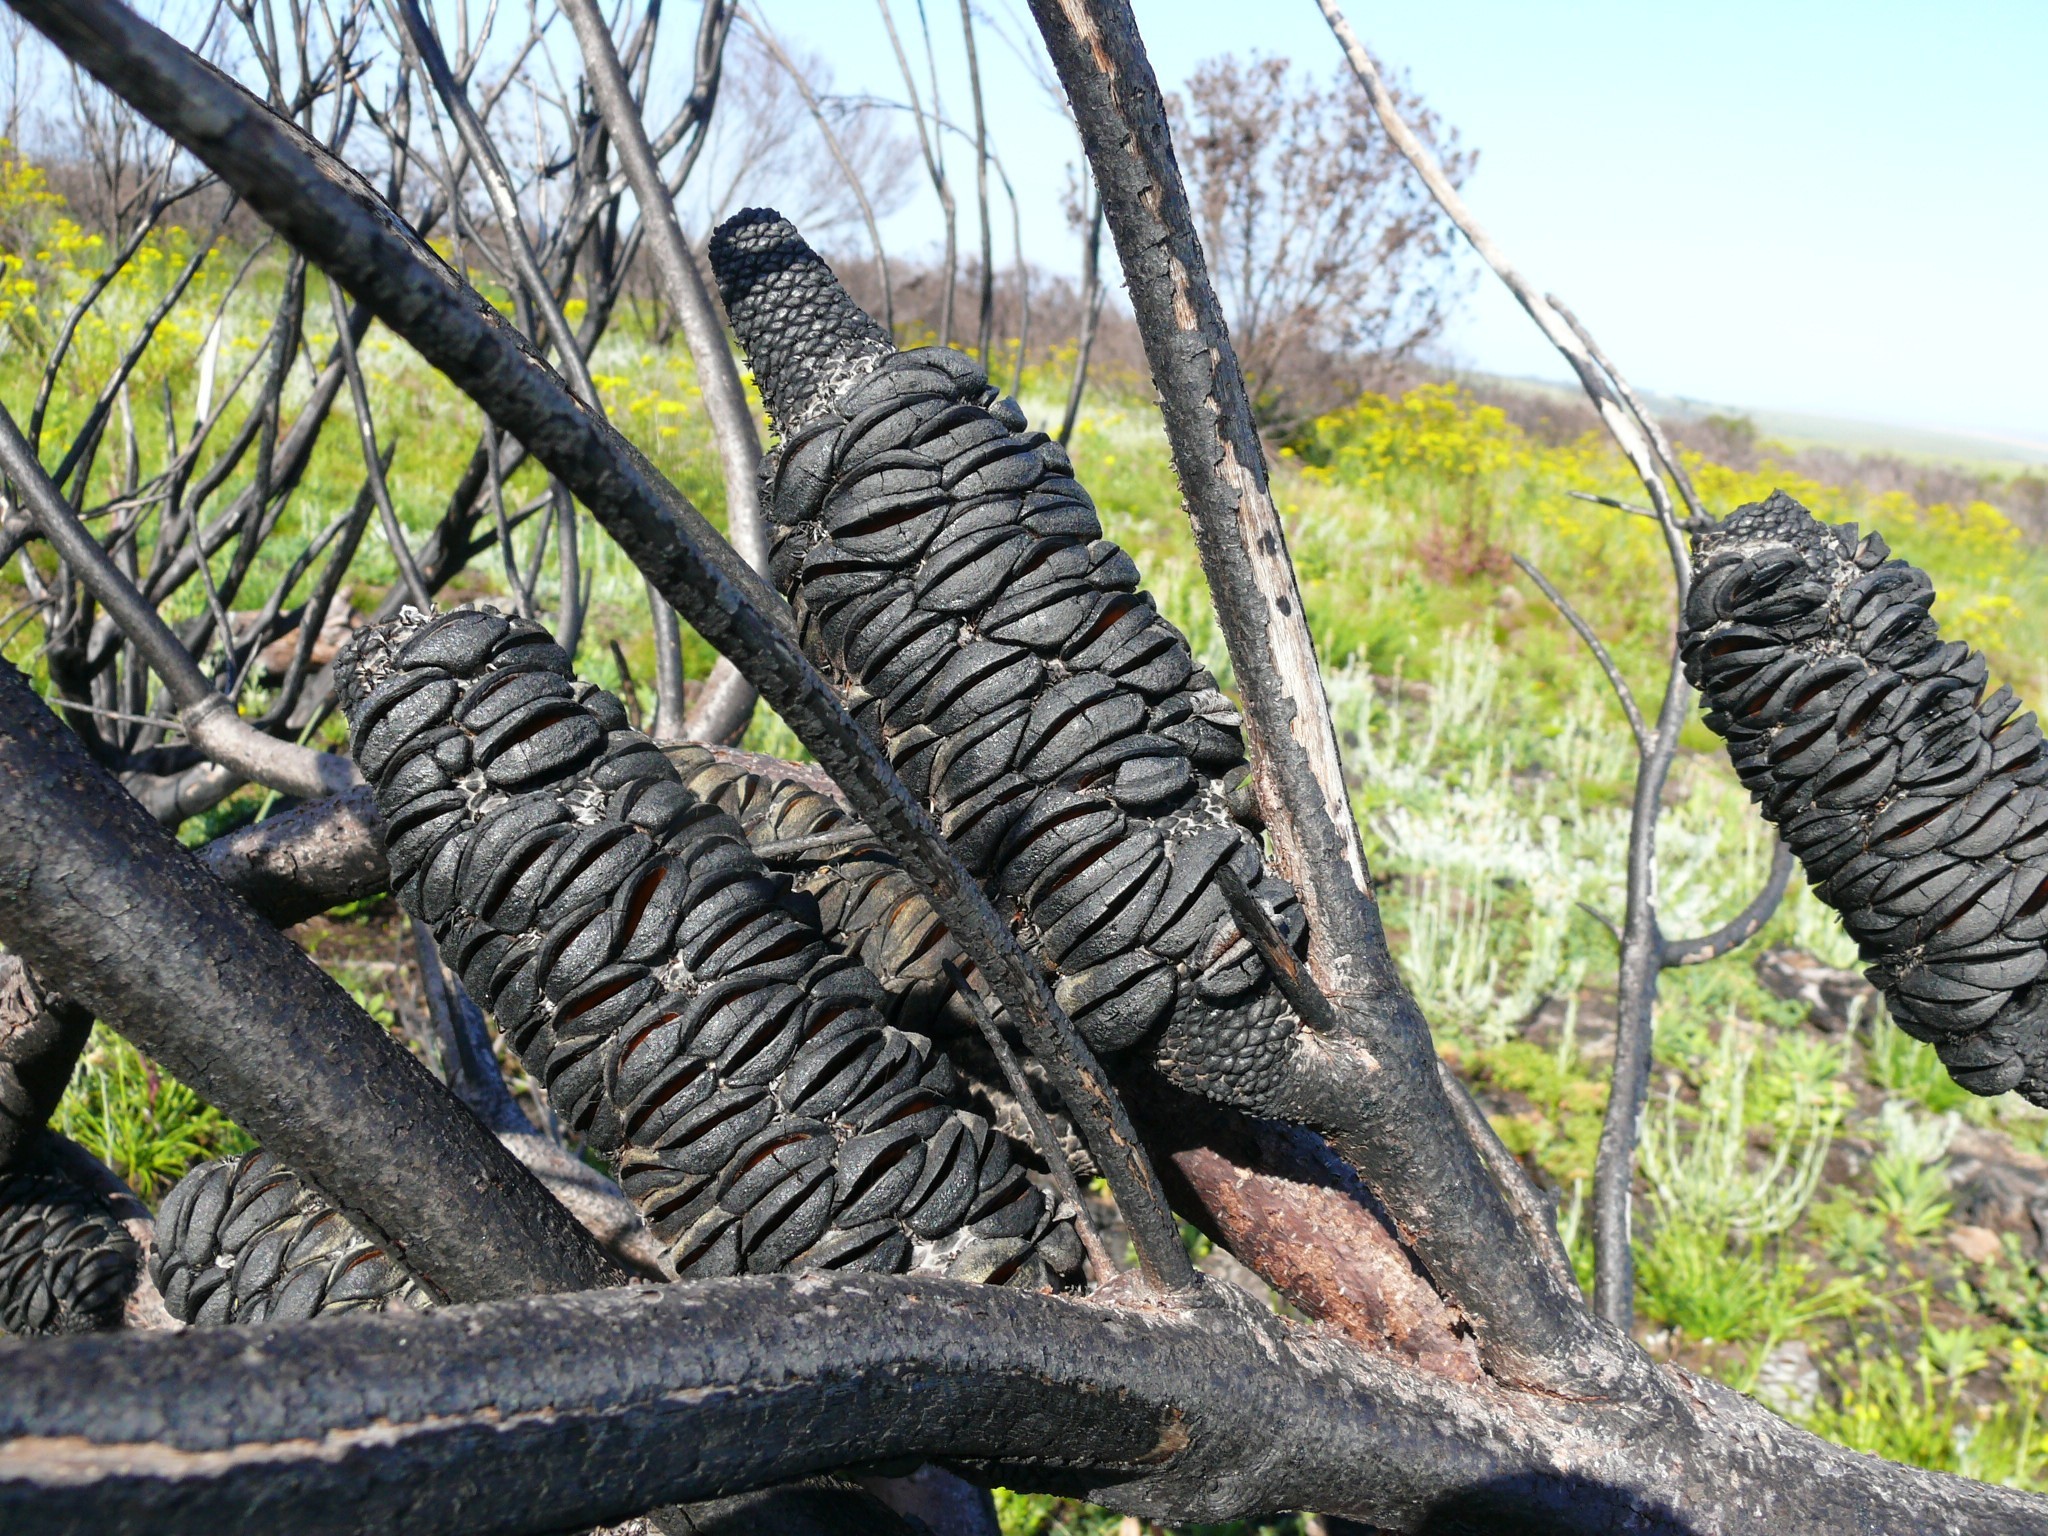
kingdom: Plantae
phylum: Tracheophyta
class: Magnoliopsida
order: Proteales
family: Proteaceae
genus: Banksia
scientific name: Banksia ericifolia
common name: Heath-leaf banksia
